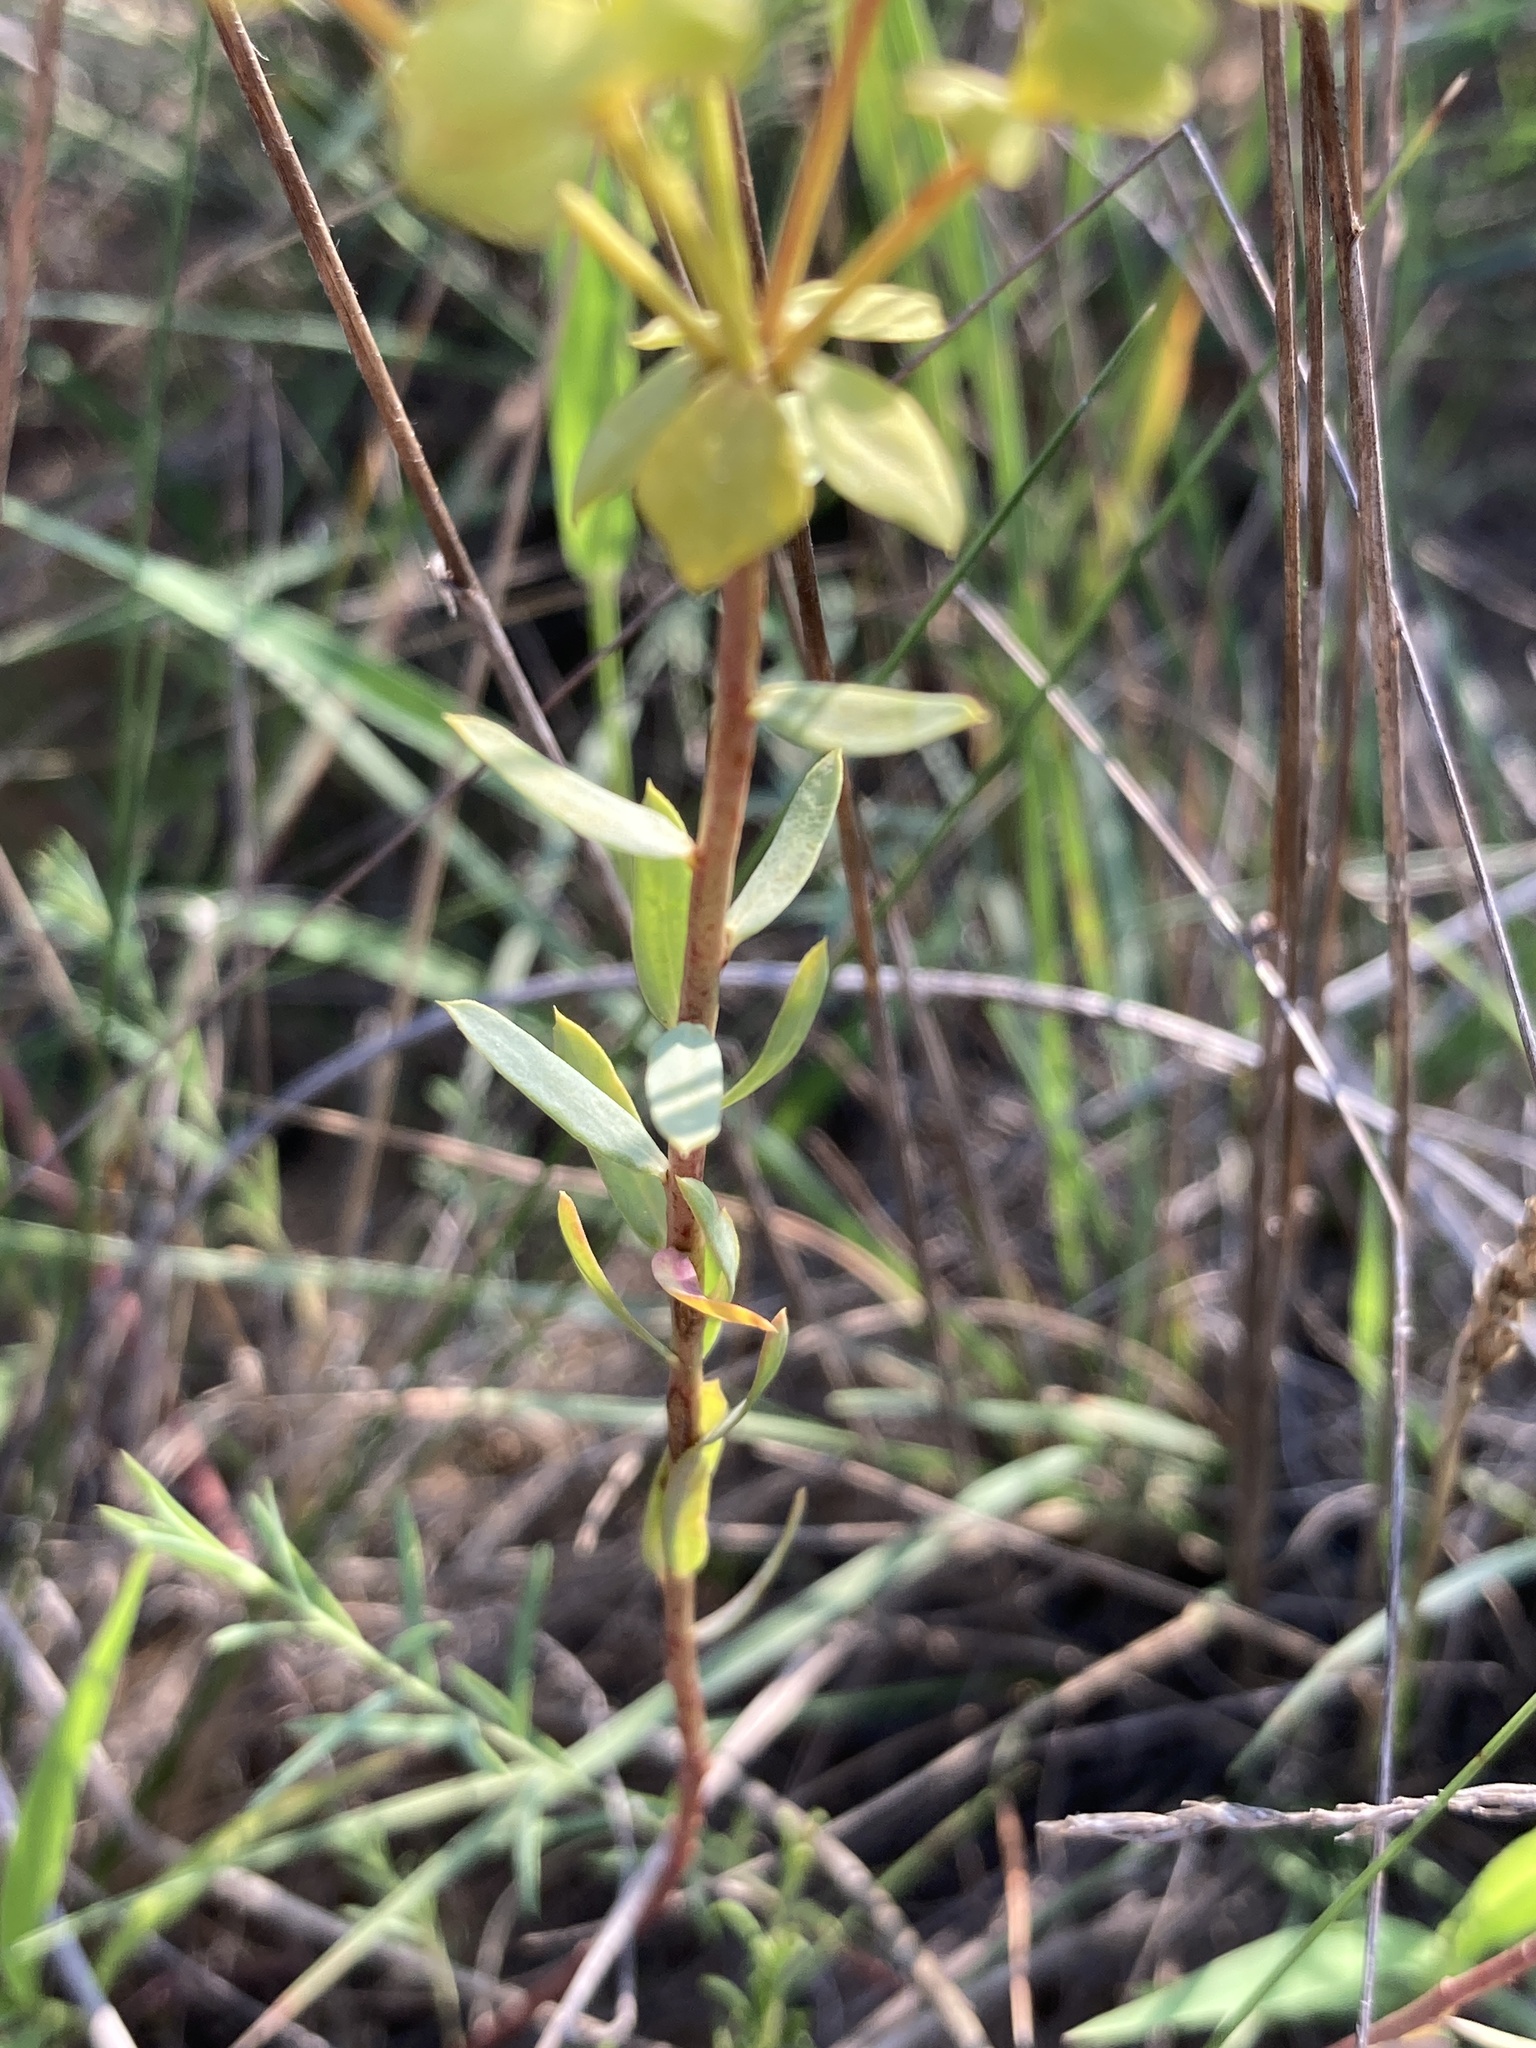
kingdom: Plantae
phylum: Tracheophyta
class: Magnoliopsida
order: Malpighiales
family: Euphorbiaceae
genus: Euphorbia
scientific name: Euphorbia seguieriana
